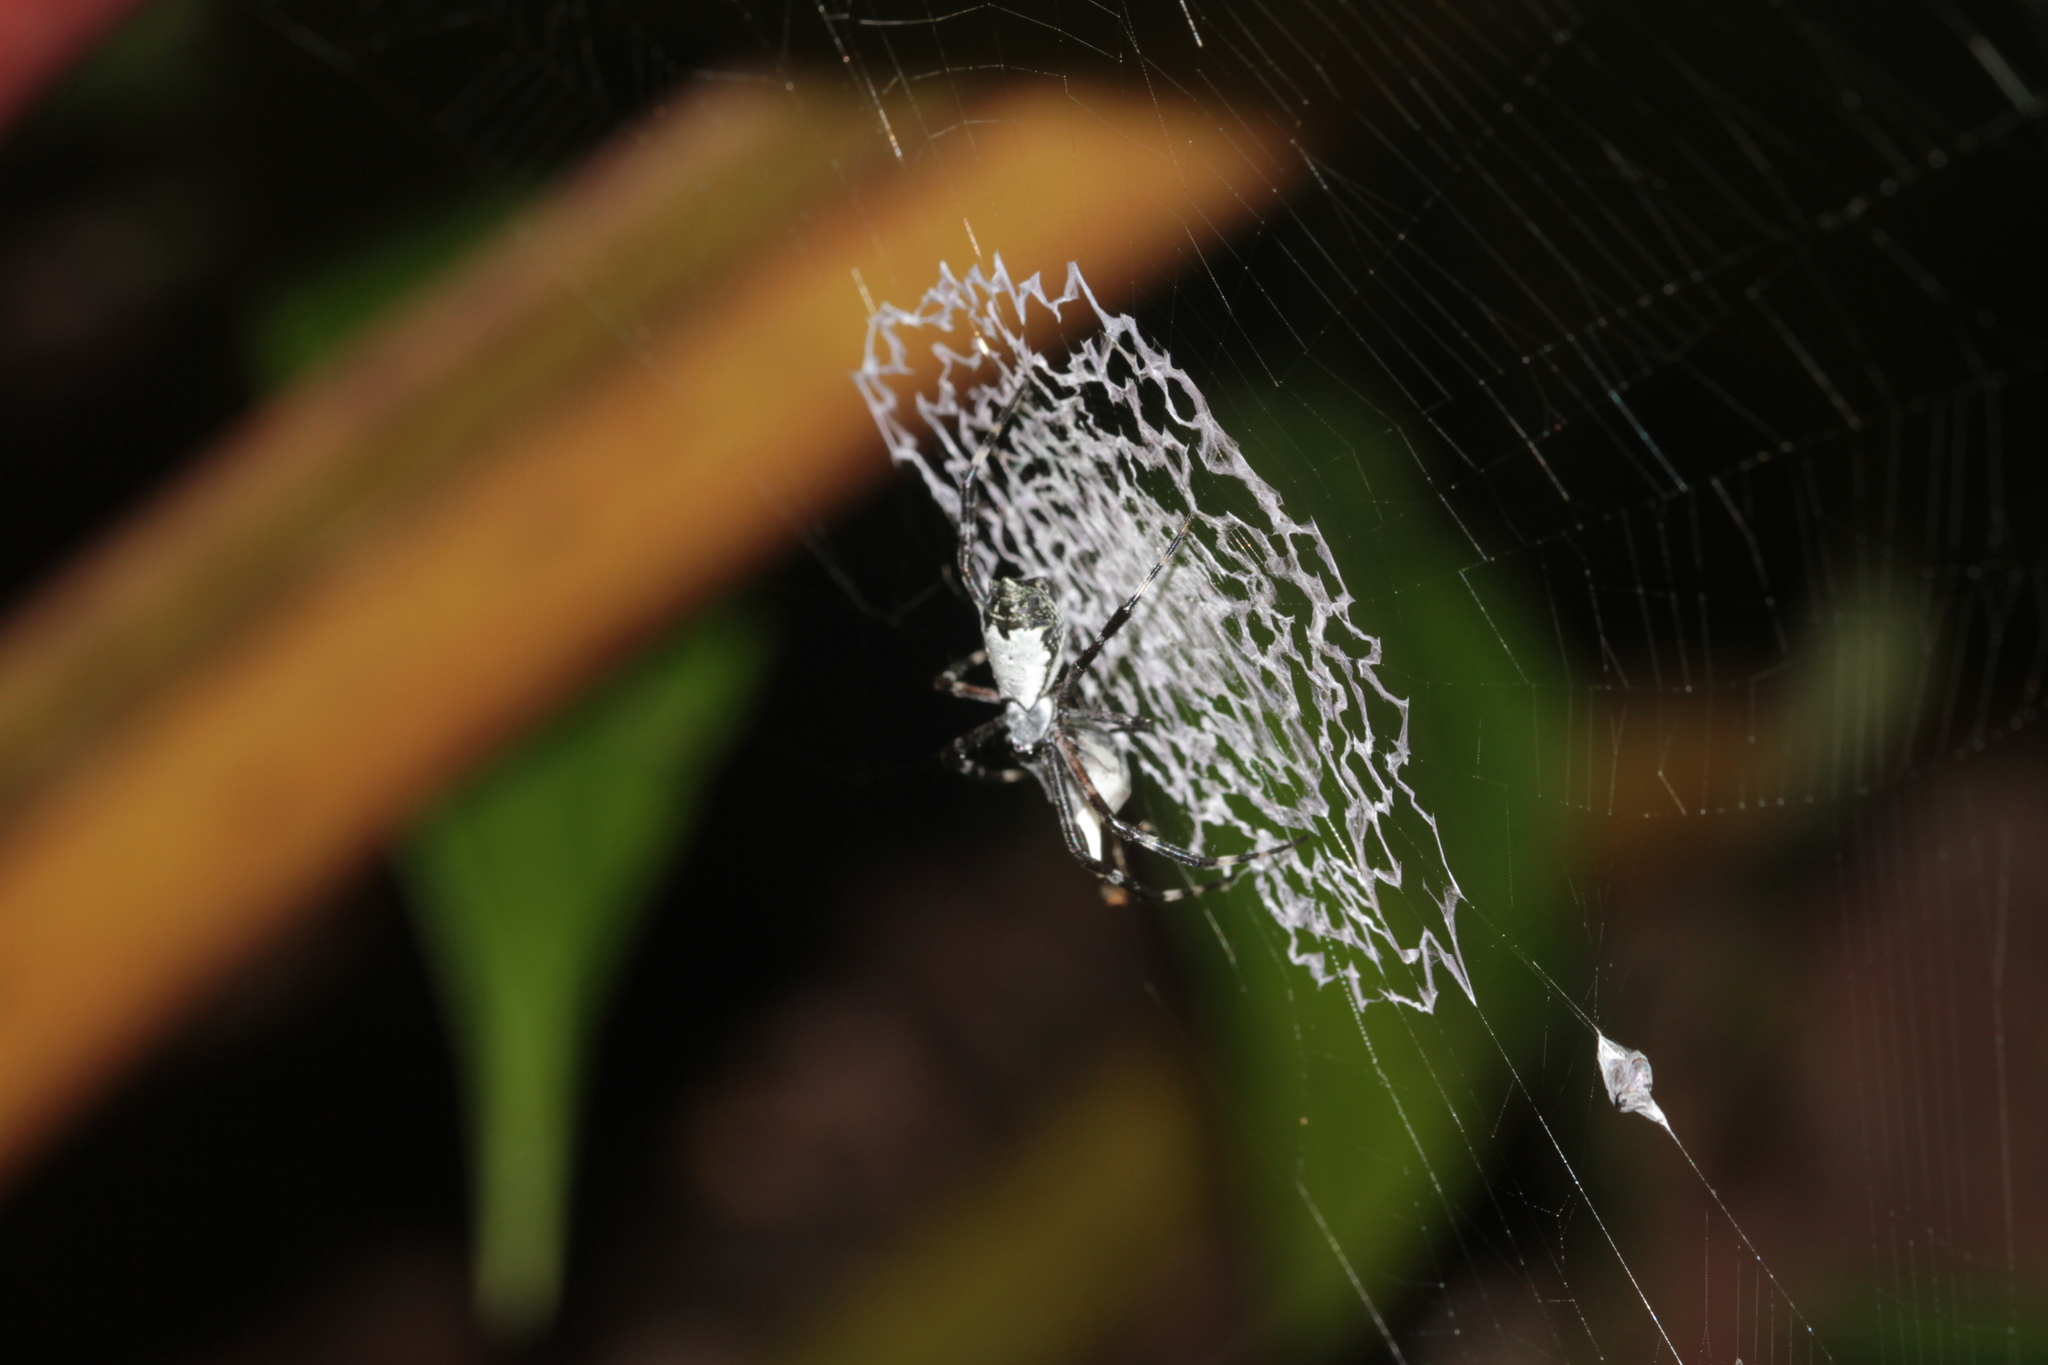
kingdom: Animalia
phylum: Arthropoda
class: Arachnida
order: Araneae
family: Araneidae
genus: Argiope
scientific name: Argiope submaronica
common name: Orb weavers
